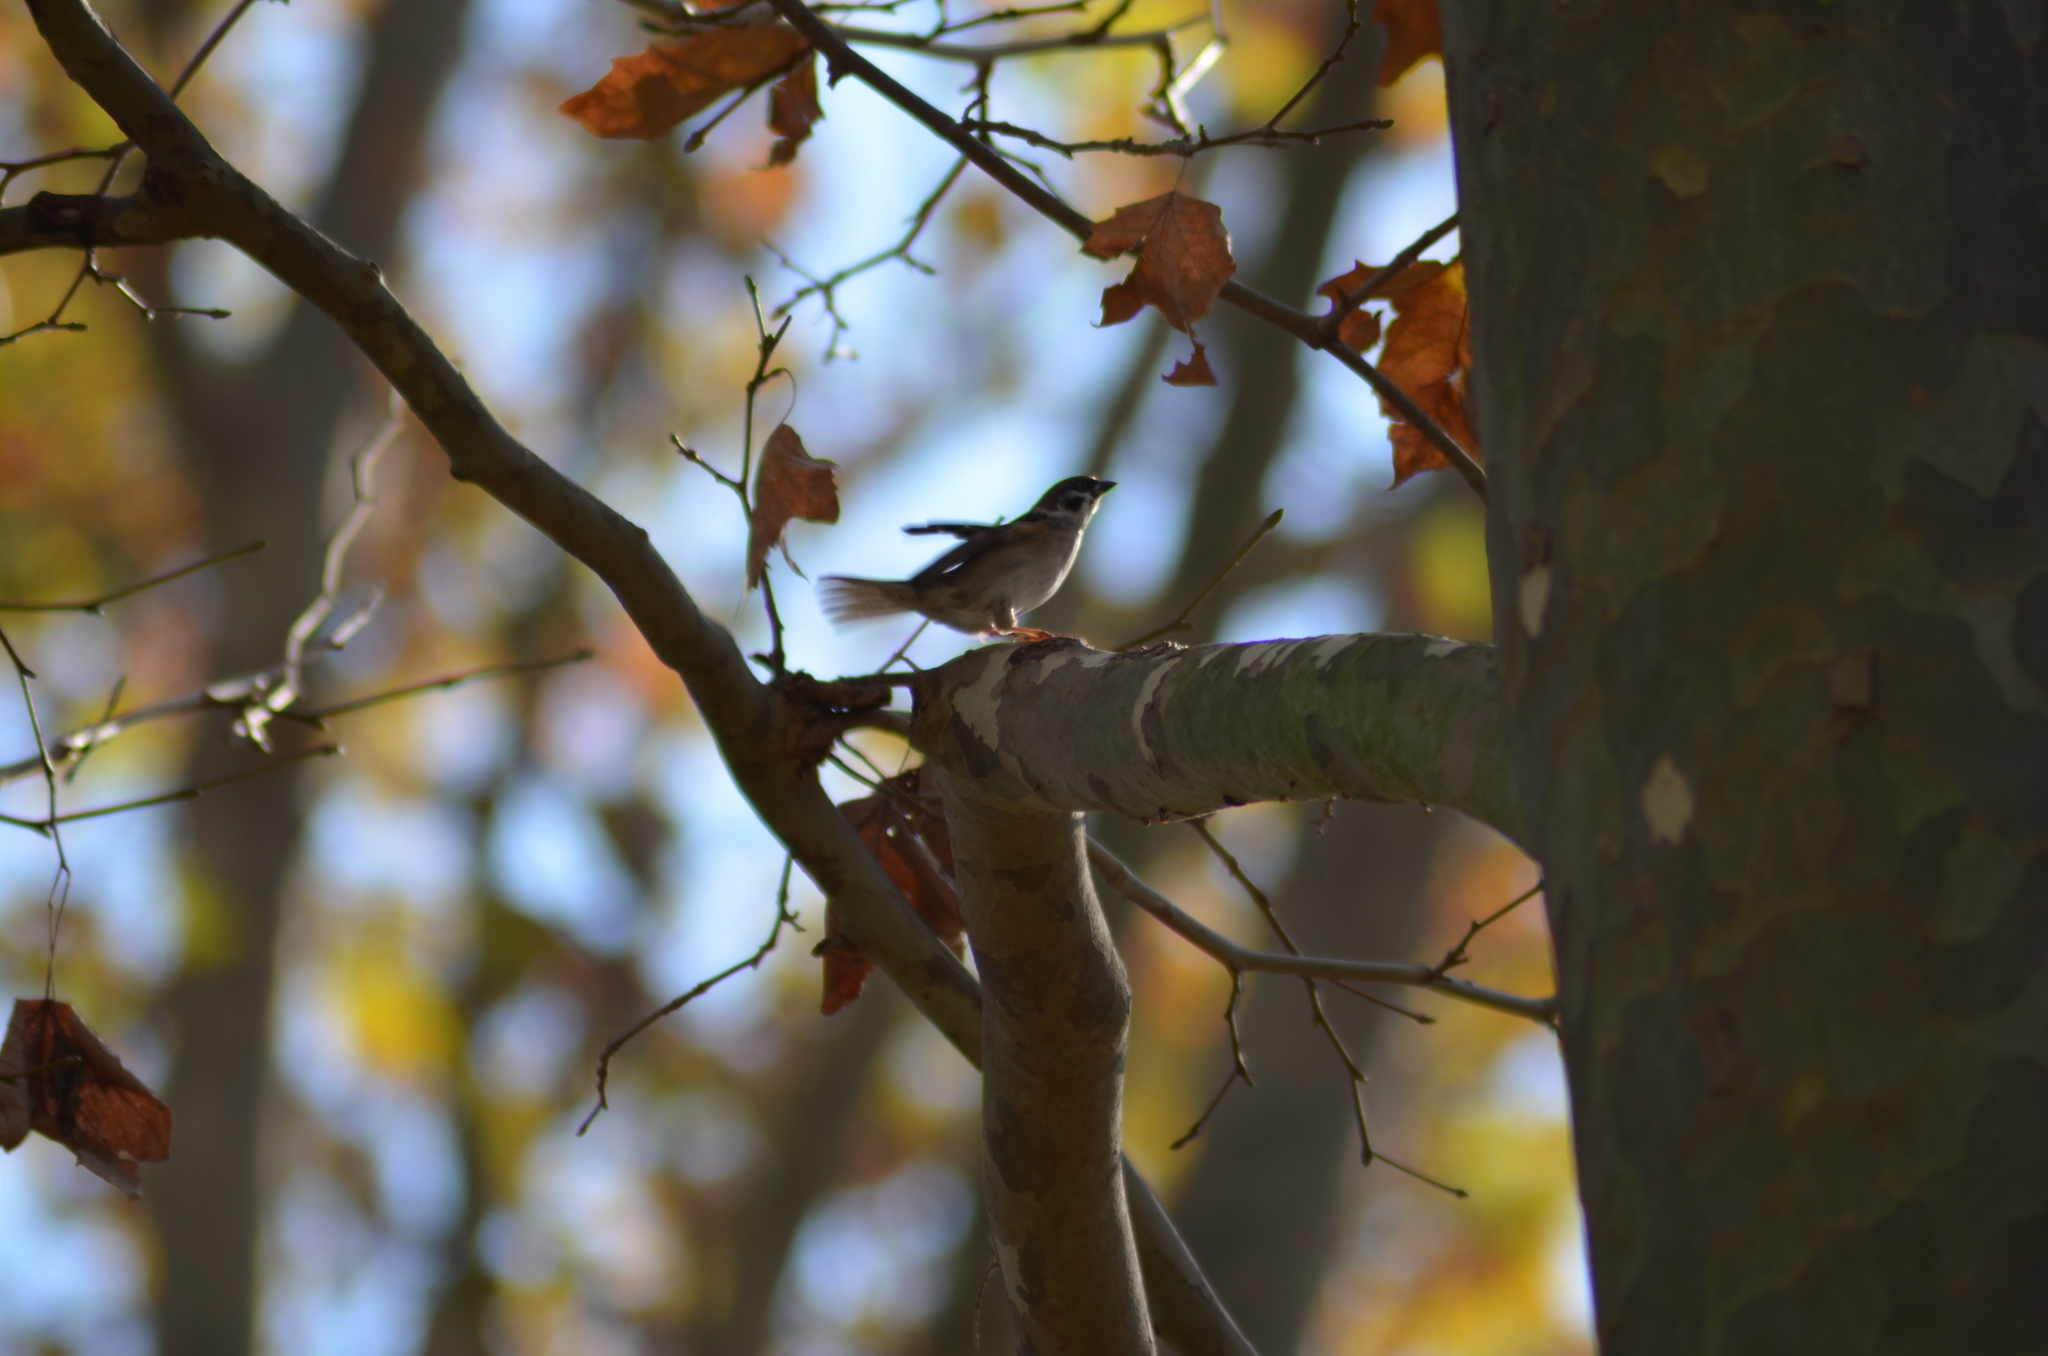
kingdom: Animalia
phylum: Chordata
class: Aves
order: Passeriformes
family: Passeridae
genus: Passer
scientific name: Passer montanus
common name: Eurasian tree sparrow
